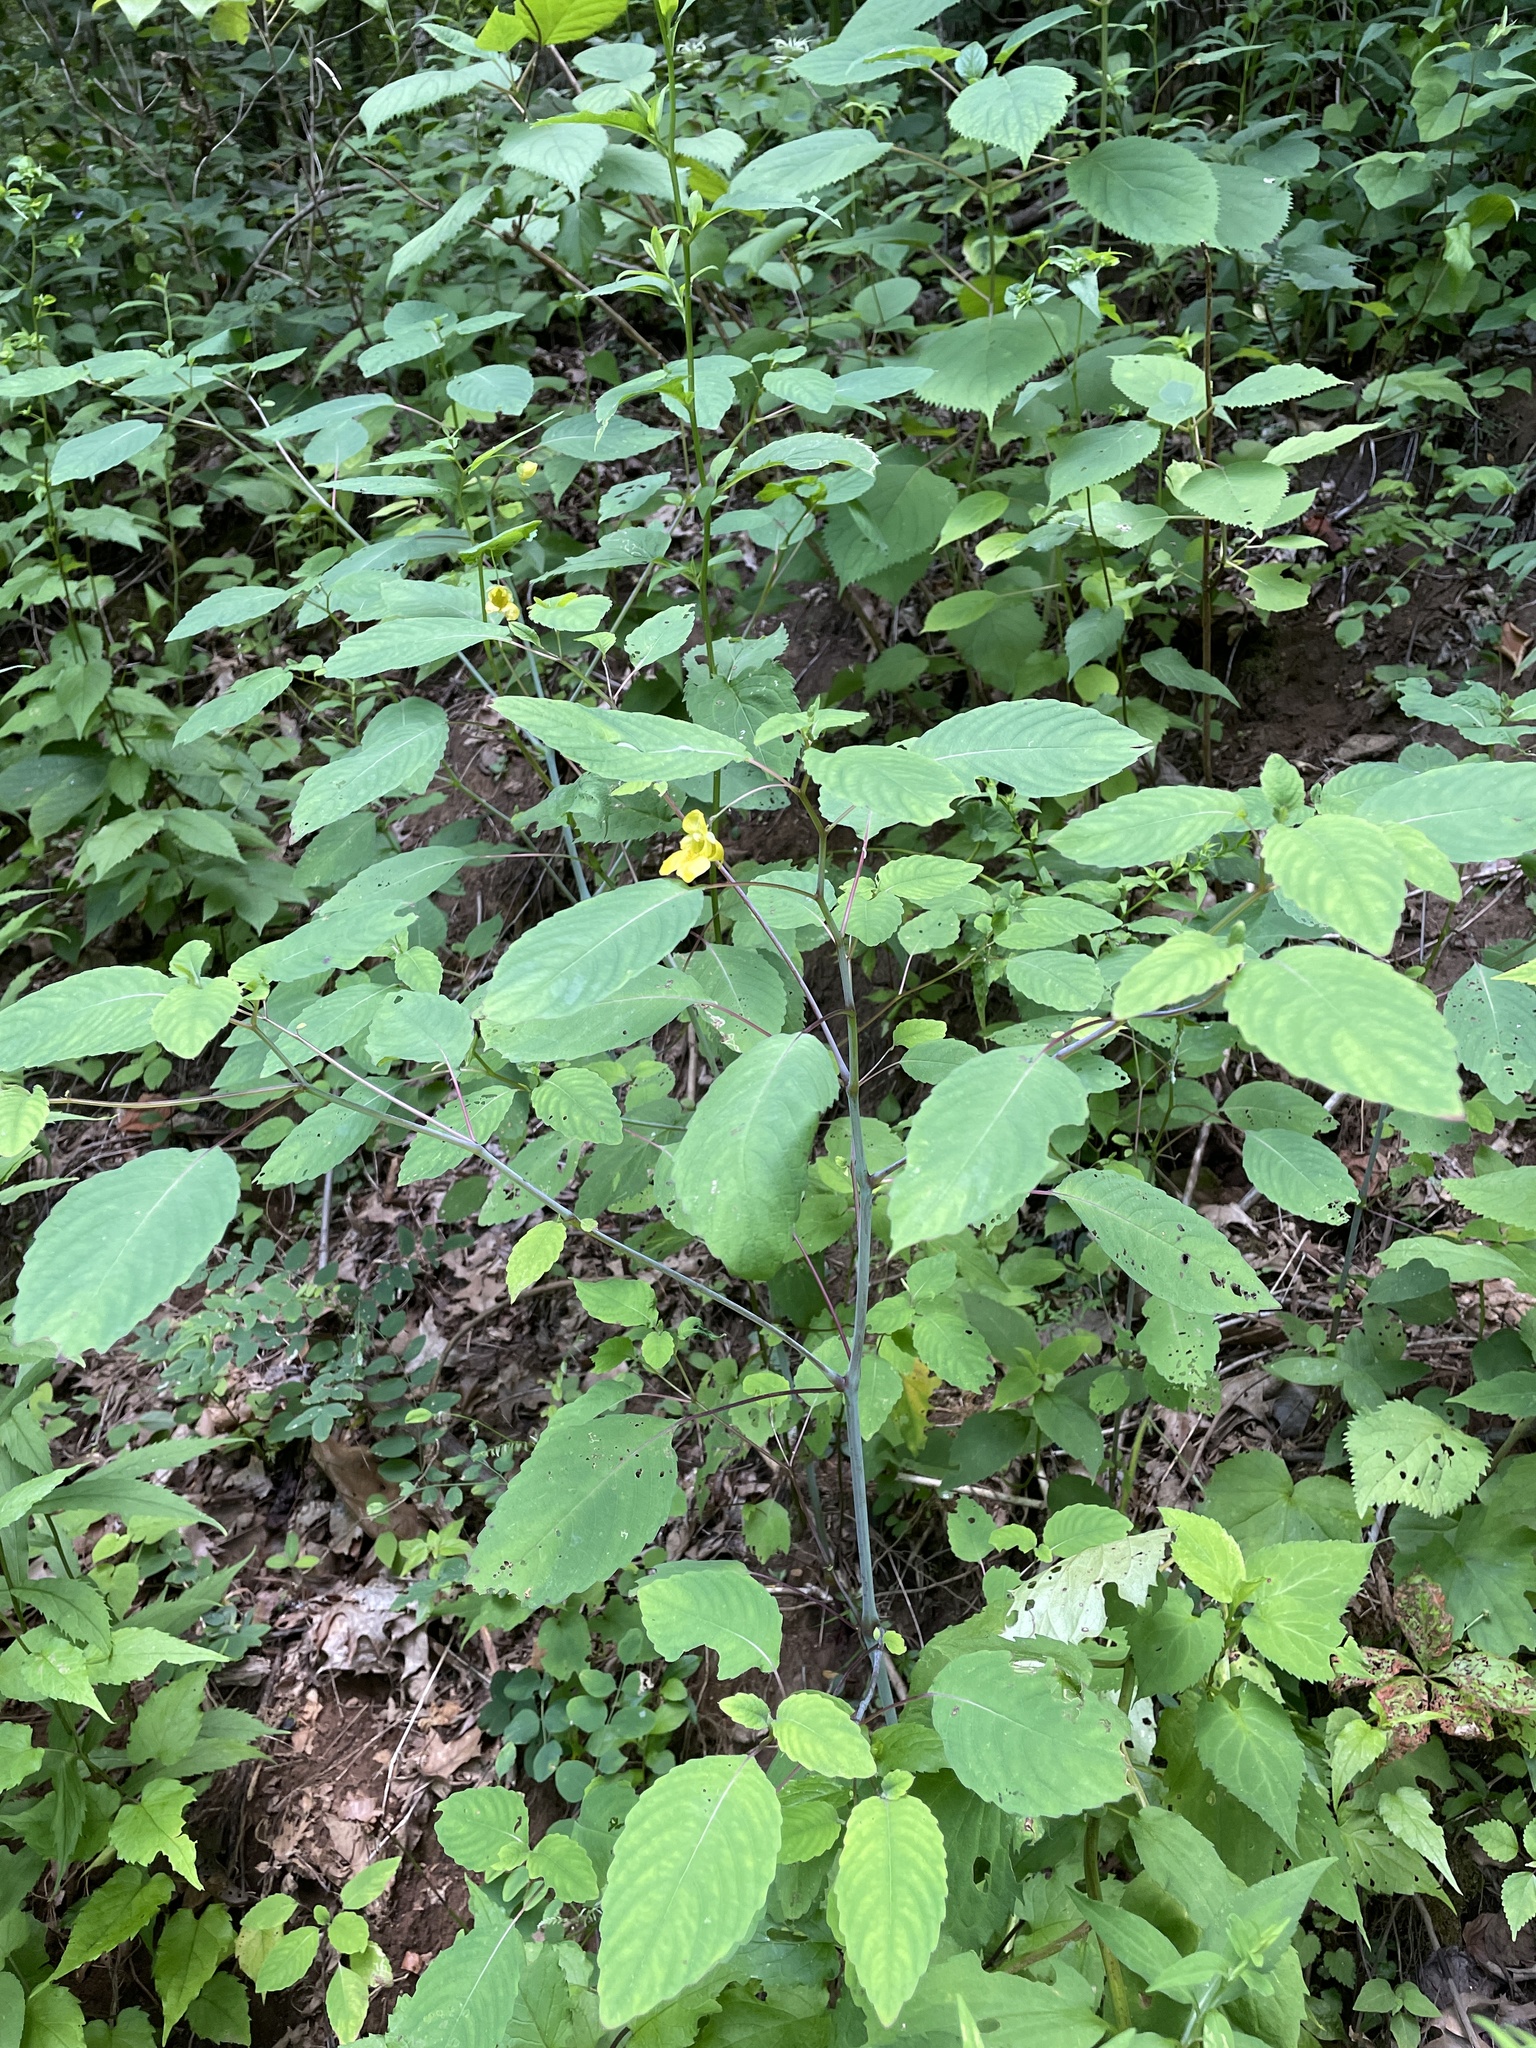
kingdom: Plantae
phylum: Tracheophyta
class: Magnoliopsida
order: Ericales
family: Balsaminaceae
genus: Impatiens
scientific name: Impatiens pallida
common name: Pale snapweed
